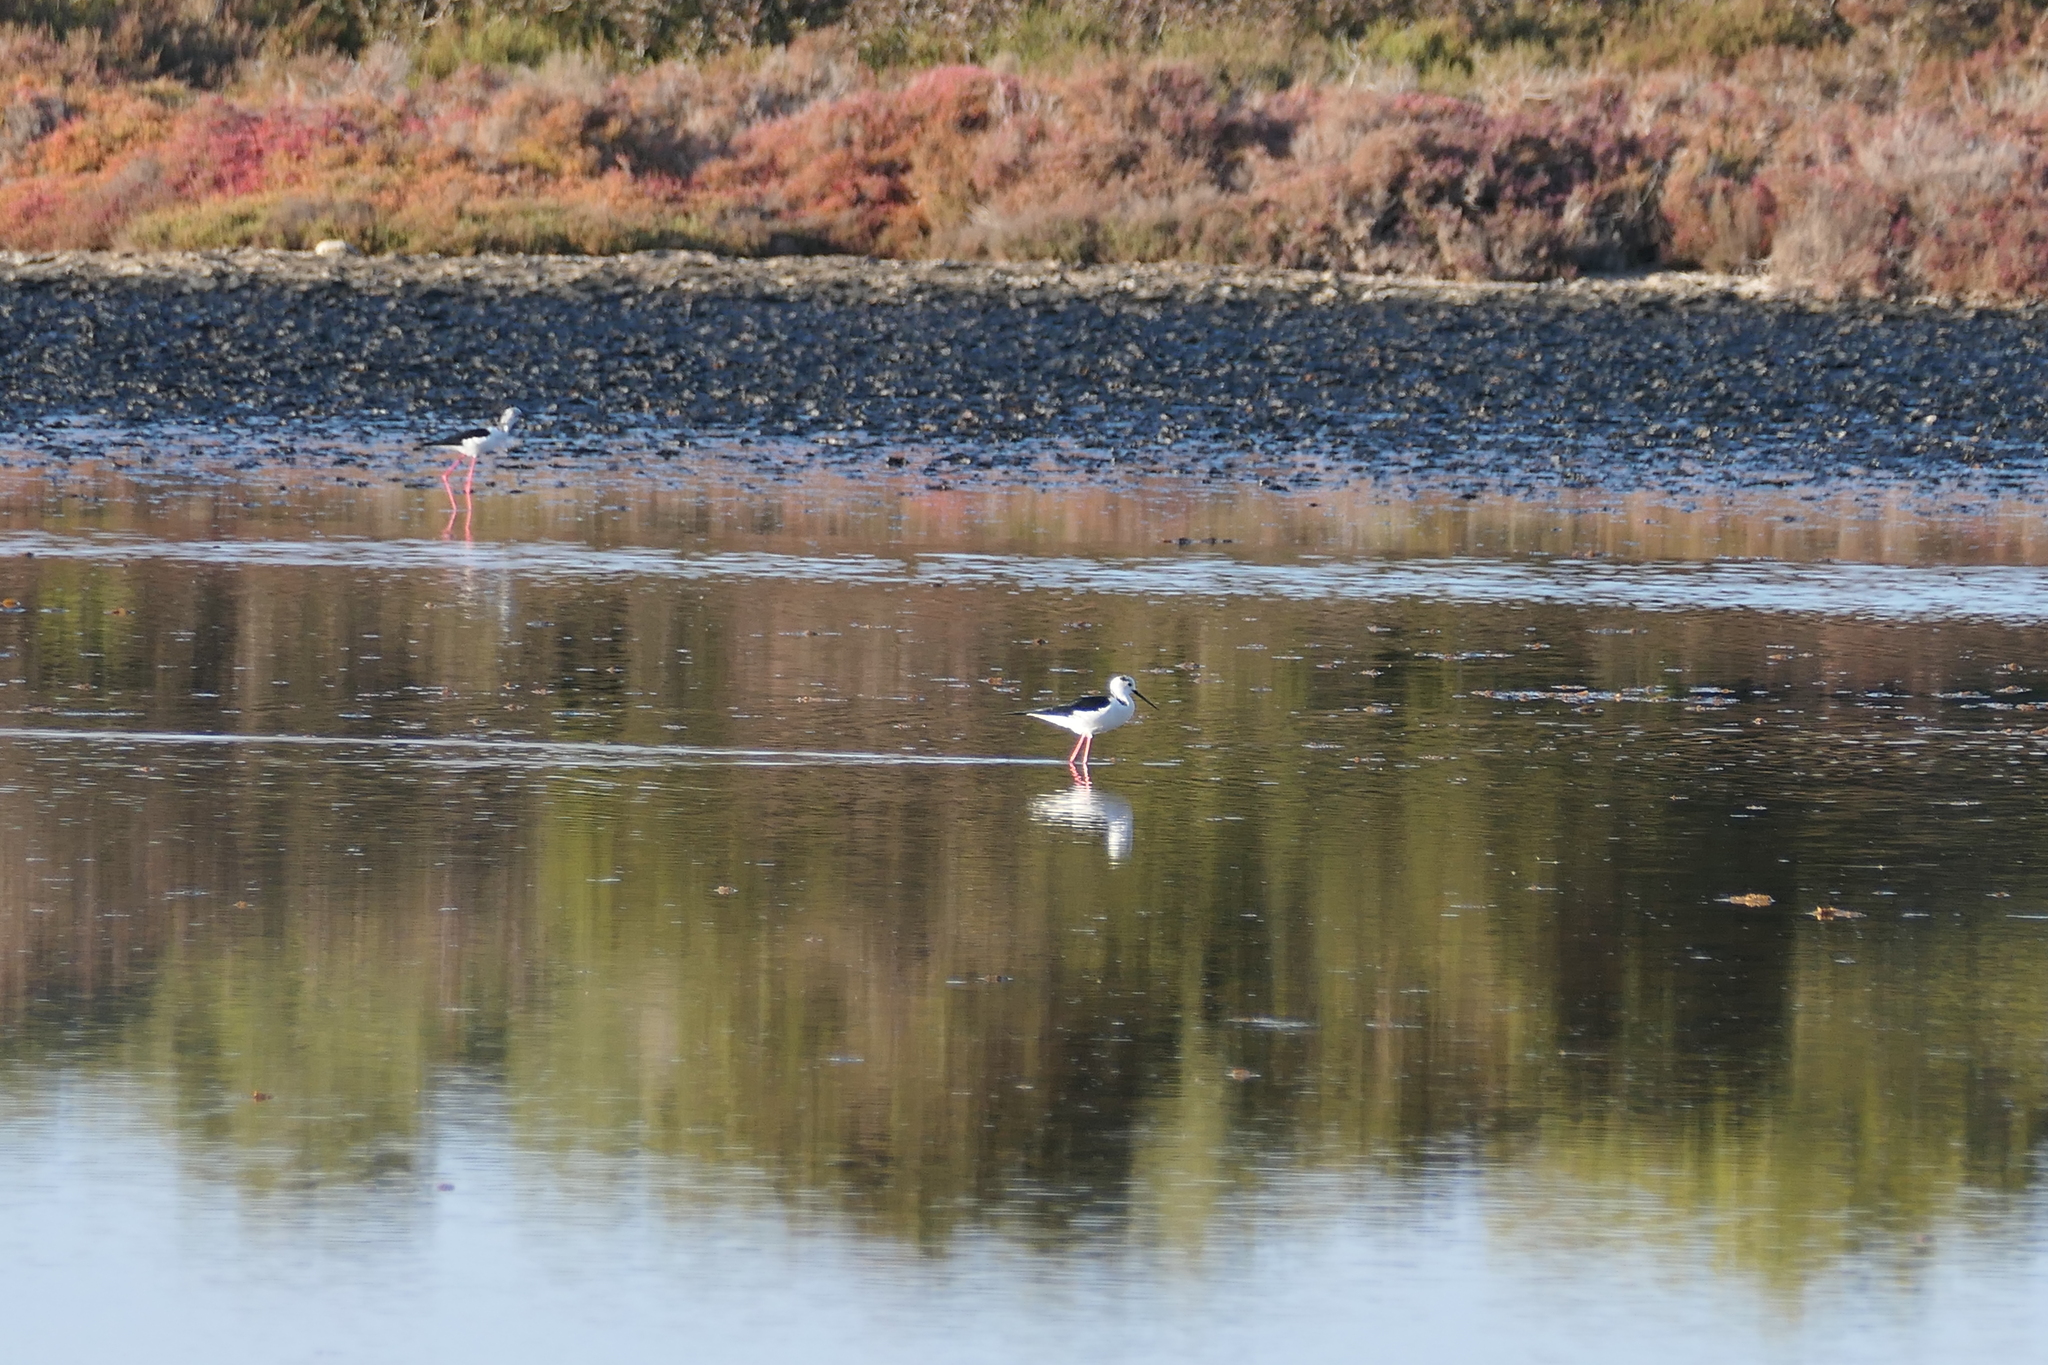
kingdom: Animalia
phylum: Chordata
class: Aves
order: Charadriiformes
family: Recurvirostridae
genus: Himantopus
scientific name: Himantopus himantopus
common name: Black-winged stilt
